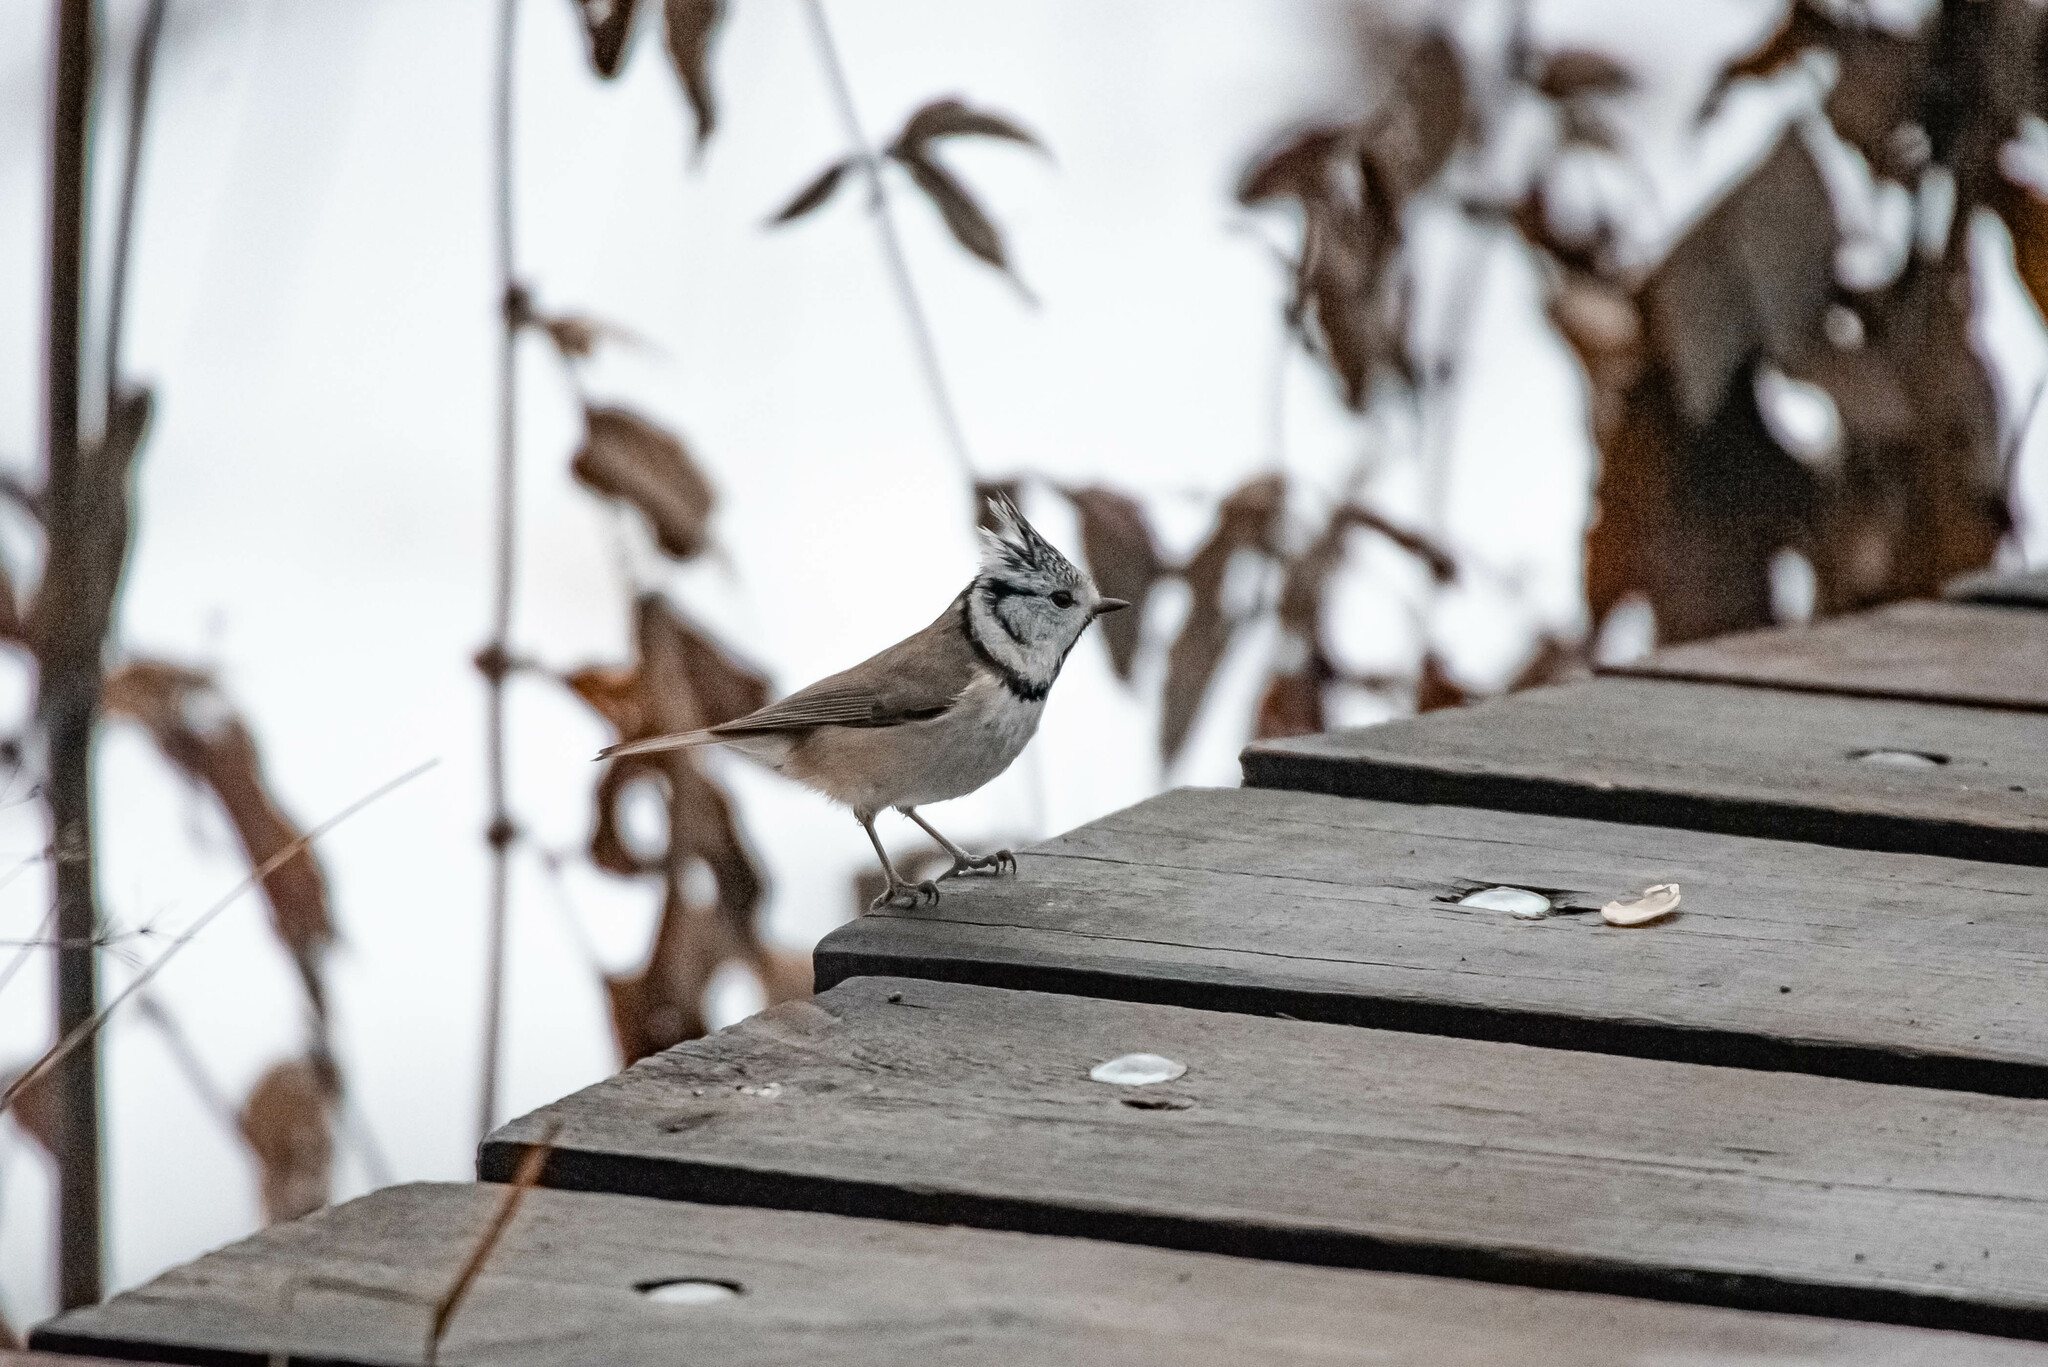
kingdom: Animalia
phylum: Chordata
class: Aves
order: Passeriformes
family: Paridae
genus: Lophophanes
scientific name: Lophophanes cristatus
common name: European crested tit
